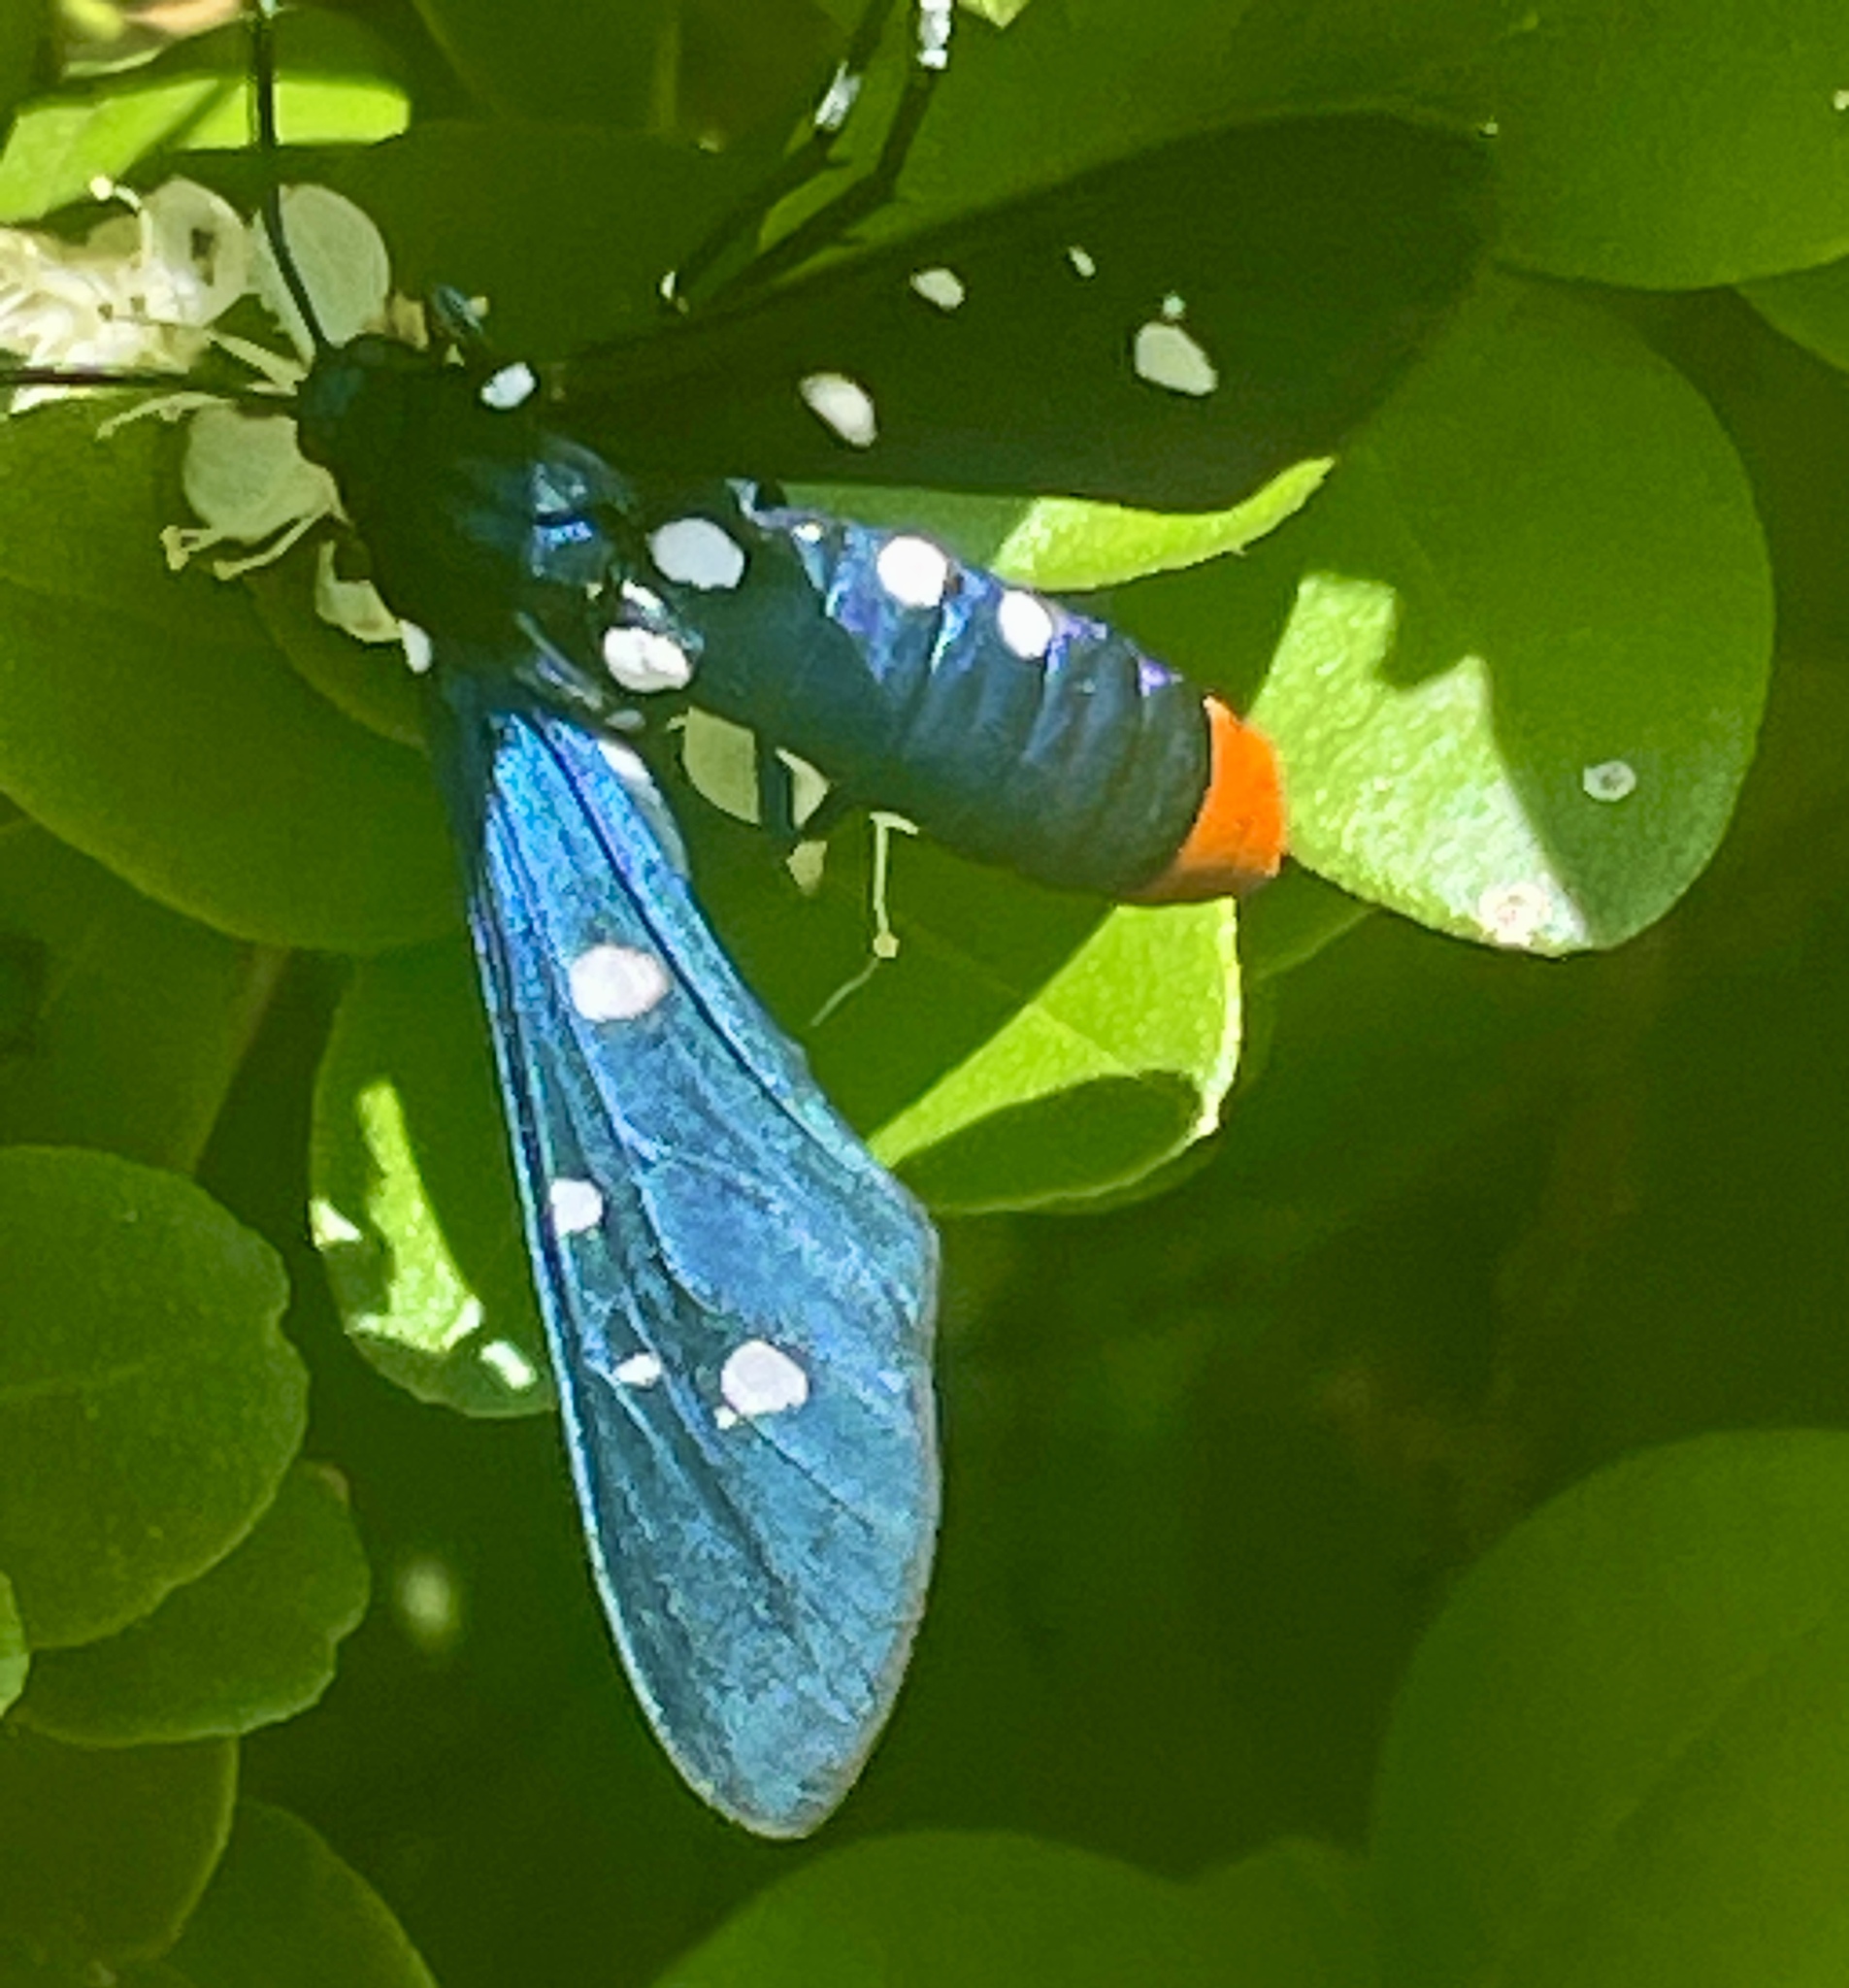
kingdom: Animalia
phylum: Arthropoda
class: Insecta
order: Lepidoptera
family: Erebidae
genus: Syntomeida
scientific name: Syntomeida epilais
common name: Polka-dot wasp moth
